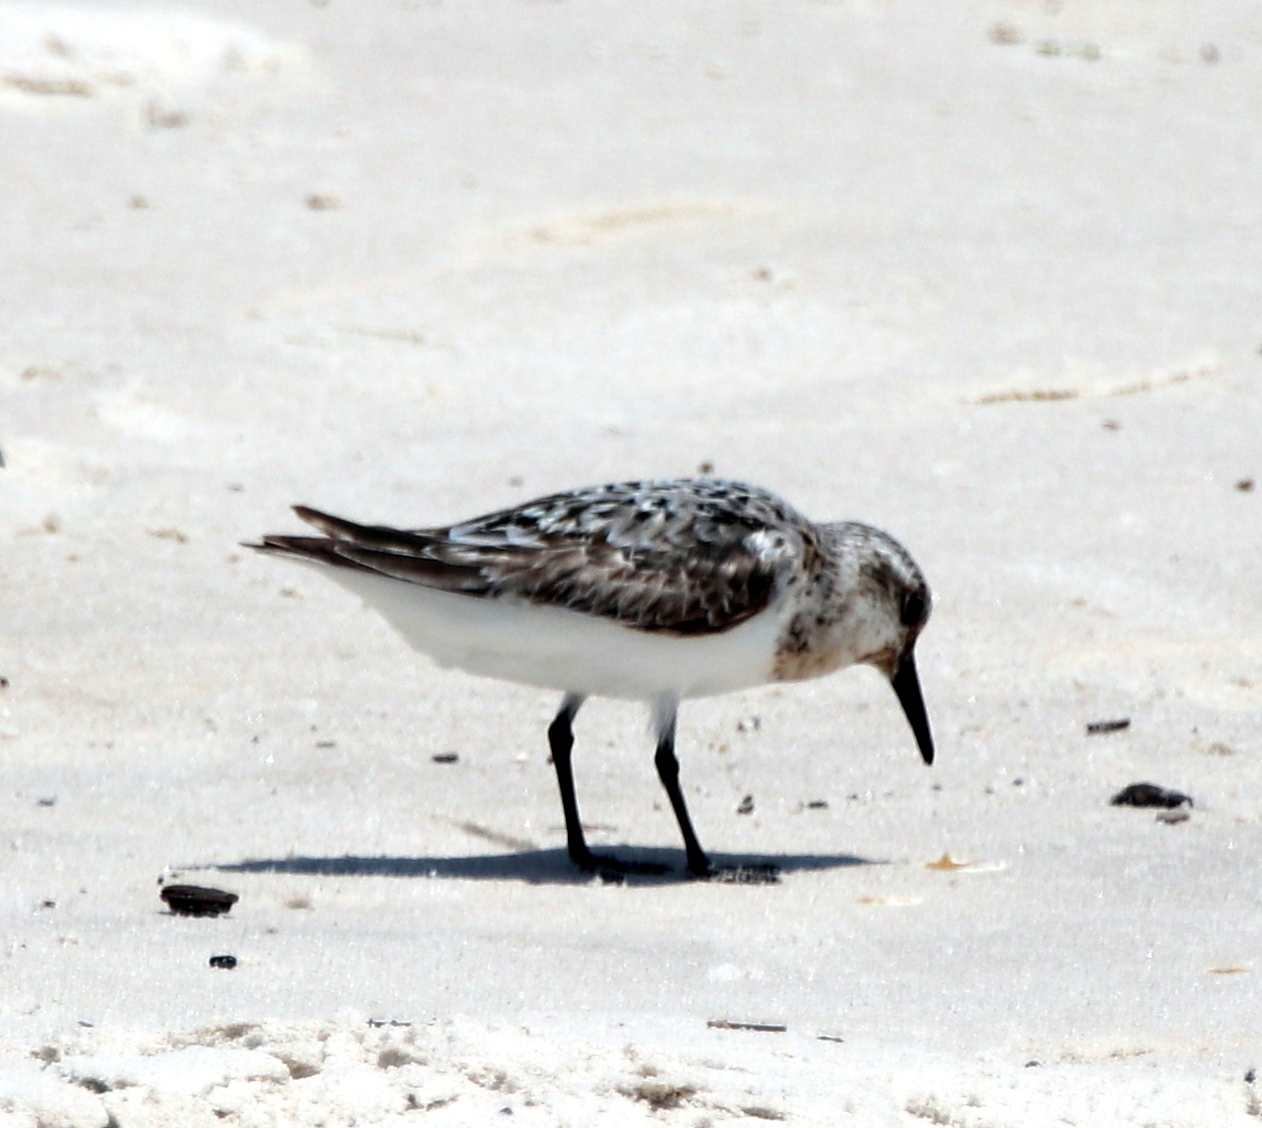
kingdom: Animalia
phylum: Chordata
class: Aves
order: Charadriiformes
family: Scolopacidae
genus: Calidris
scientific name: Calidris alba
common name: Sanderling
